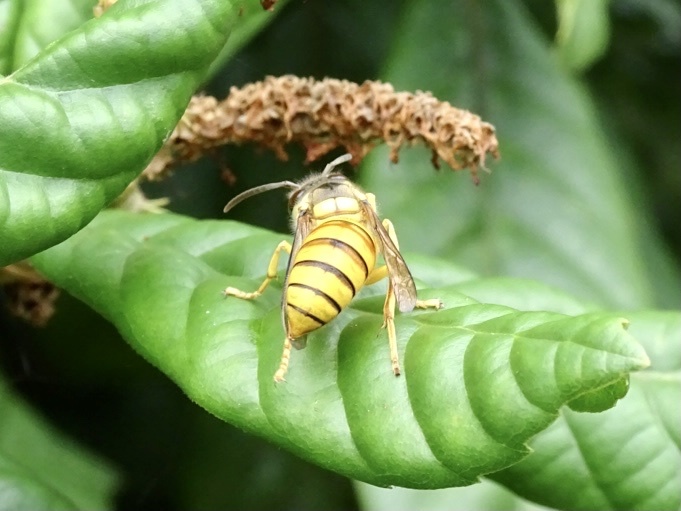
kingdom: Animalia
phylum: Arthropoda
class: Insecta
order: Hymenoptera
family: Vespidae
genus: Vespa
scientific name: Vespa bicolor
